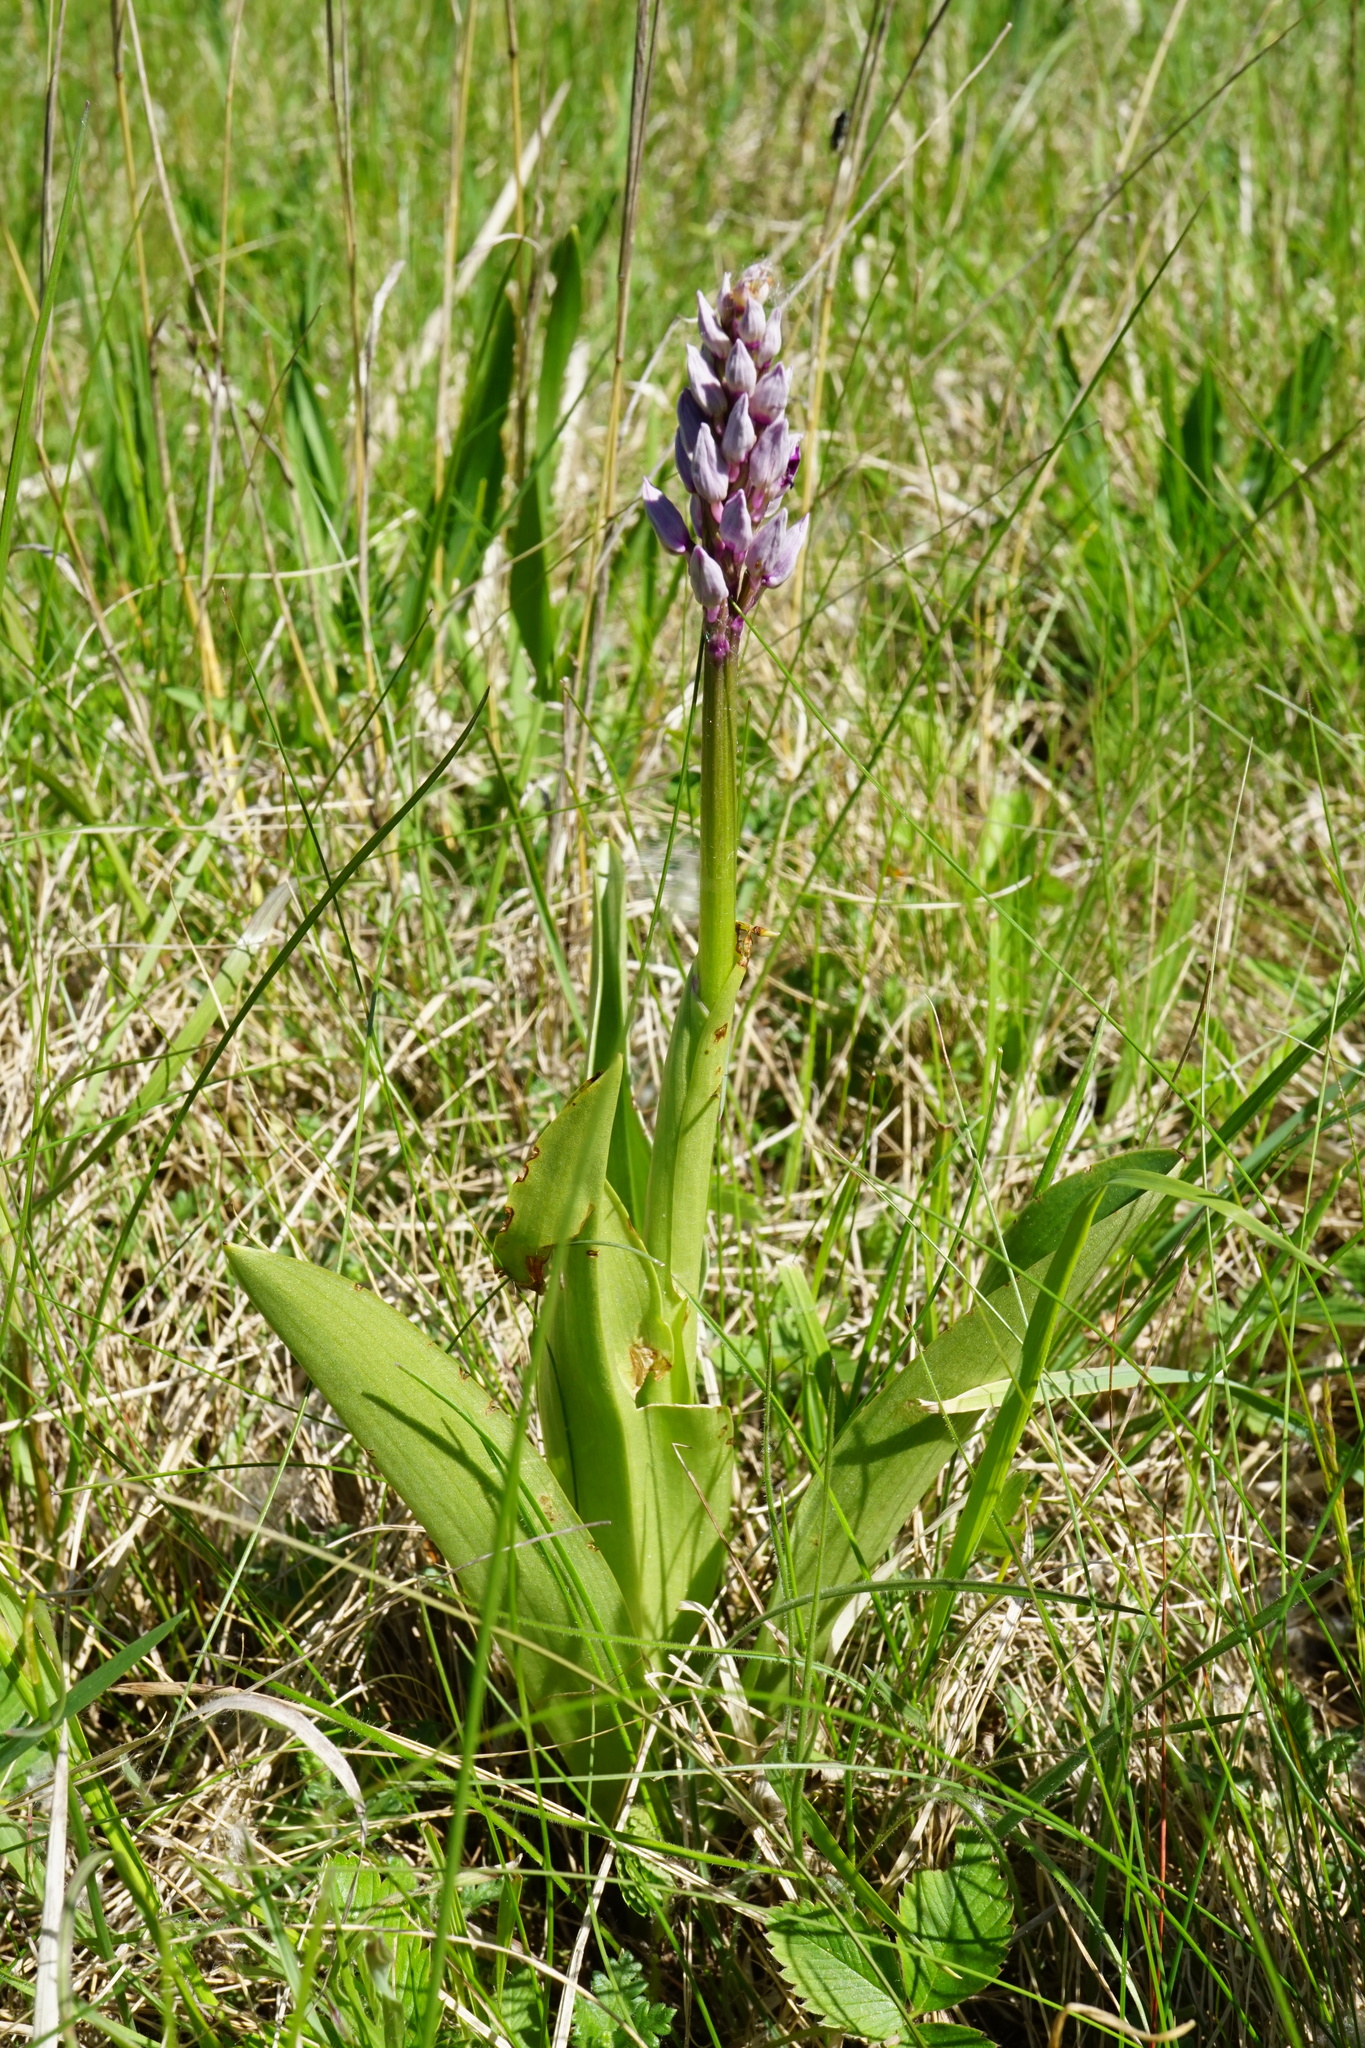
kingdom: Plantae
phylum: Tracheophyta
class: Liliopsida
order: Asparagales
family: Orchidaceae
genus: Orchis
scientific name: Orchis militaris
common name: Military orchid
